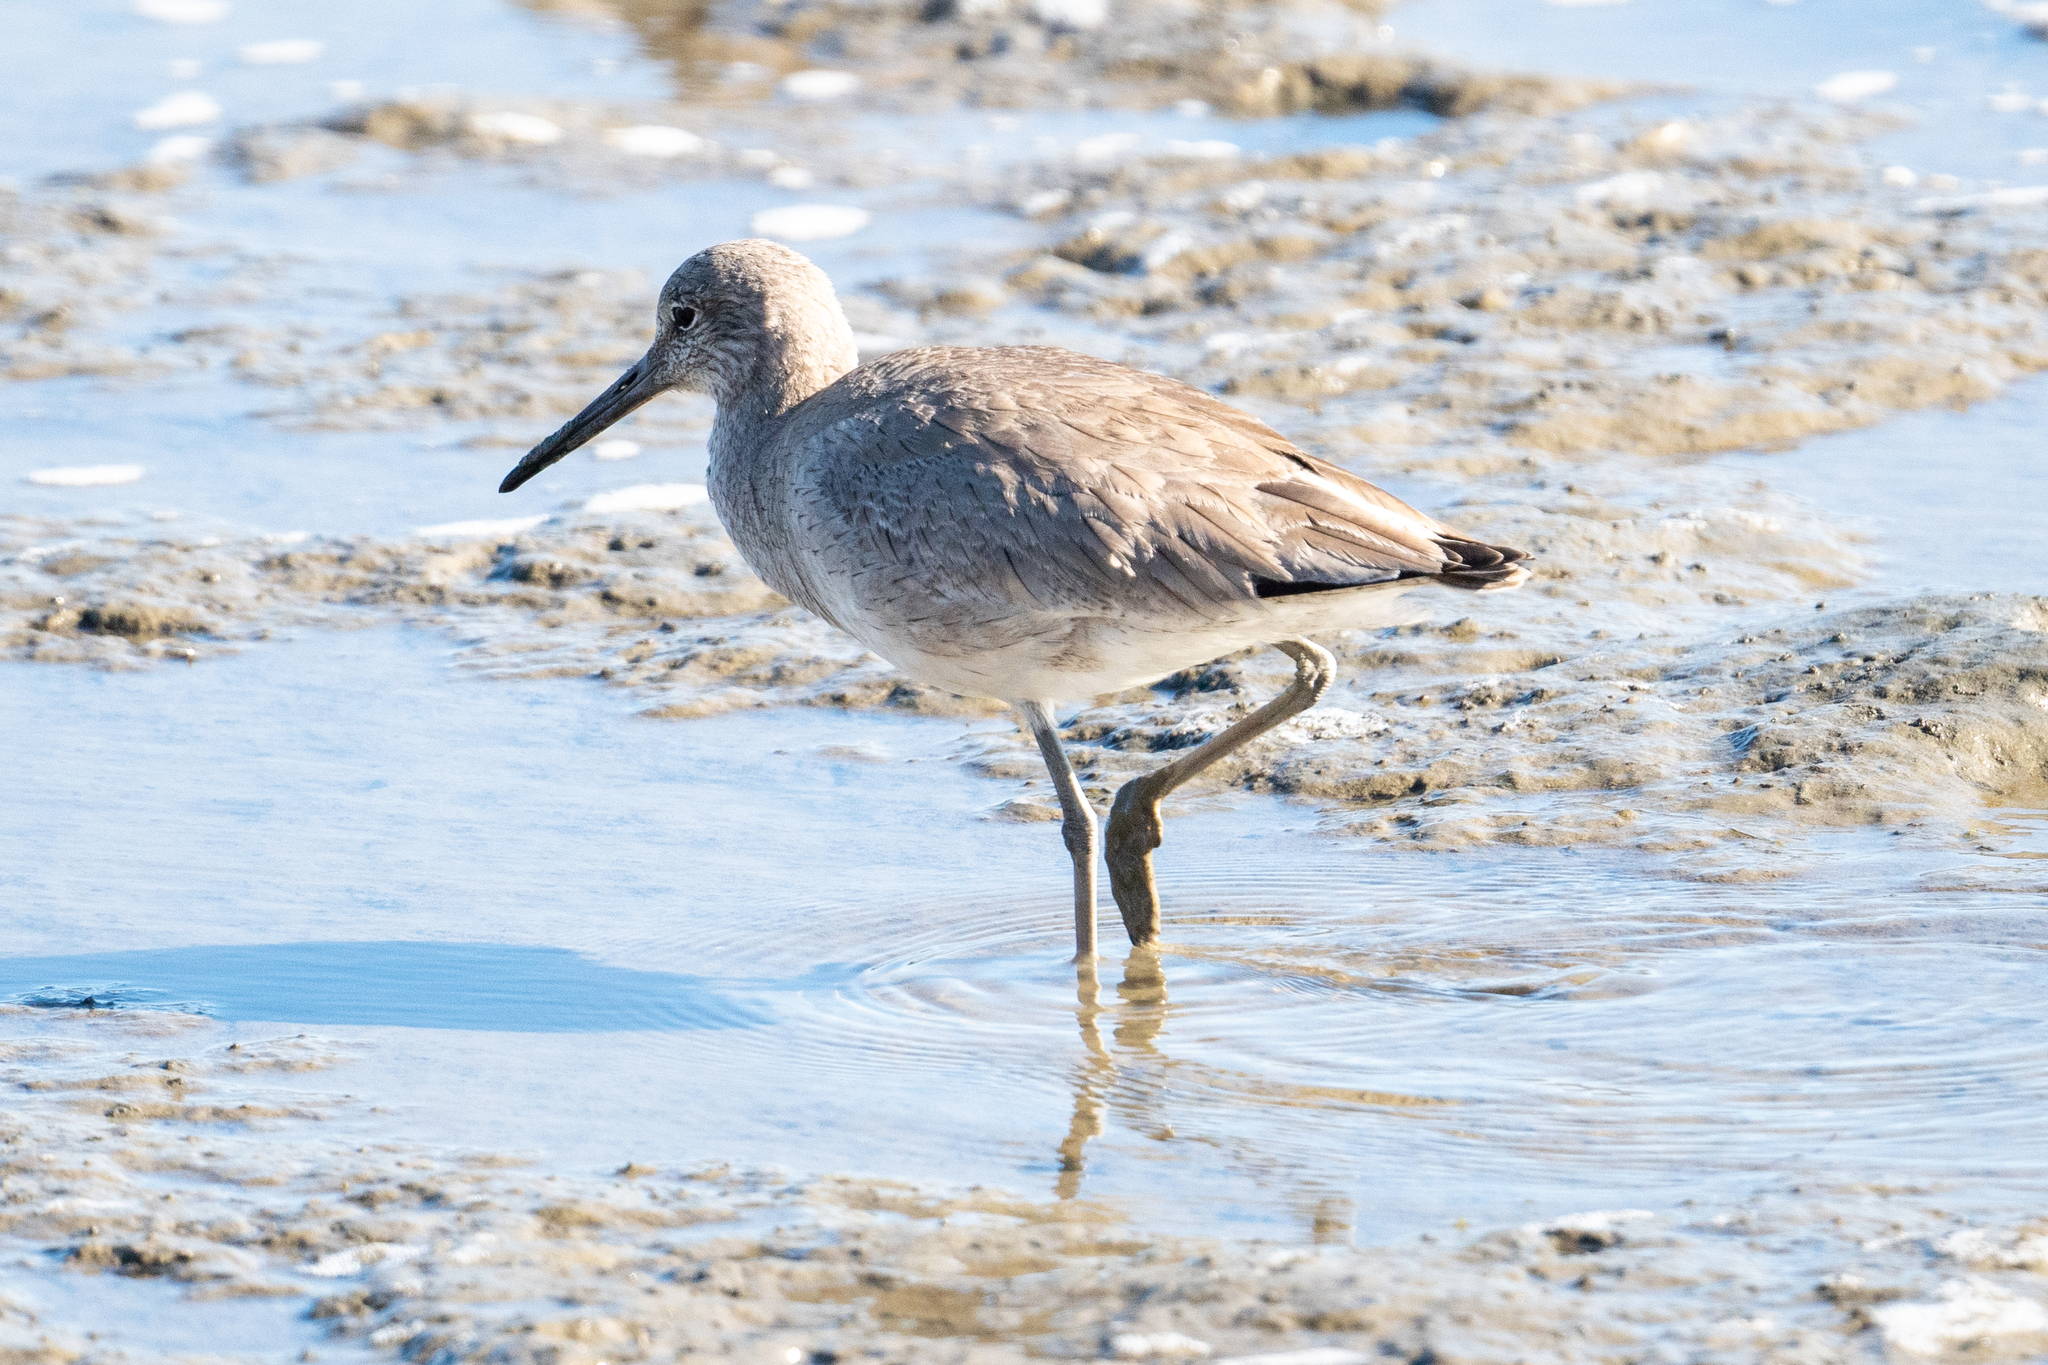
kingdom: Animalia
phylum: Chordata
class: Aves
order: Charadriiformes
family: Scolopacidae
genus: Tringa
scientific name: Tringa semipalmata
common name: Willet
